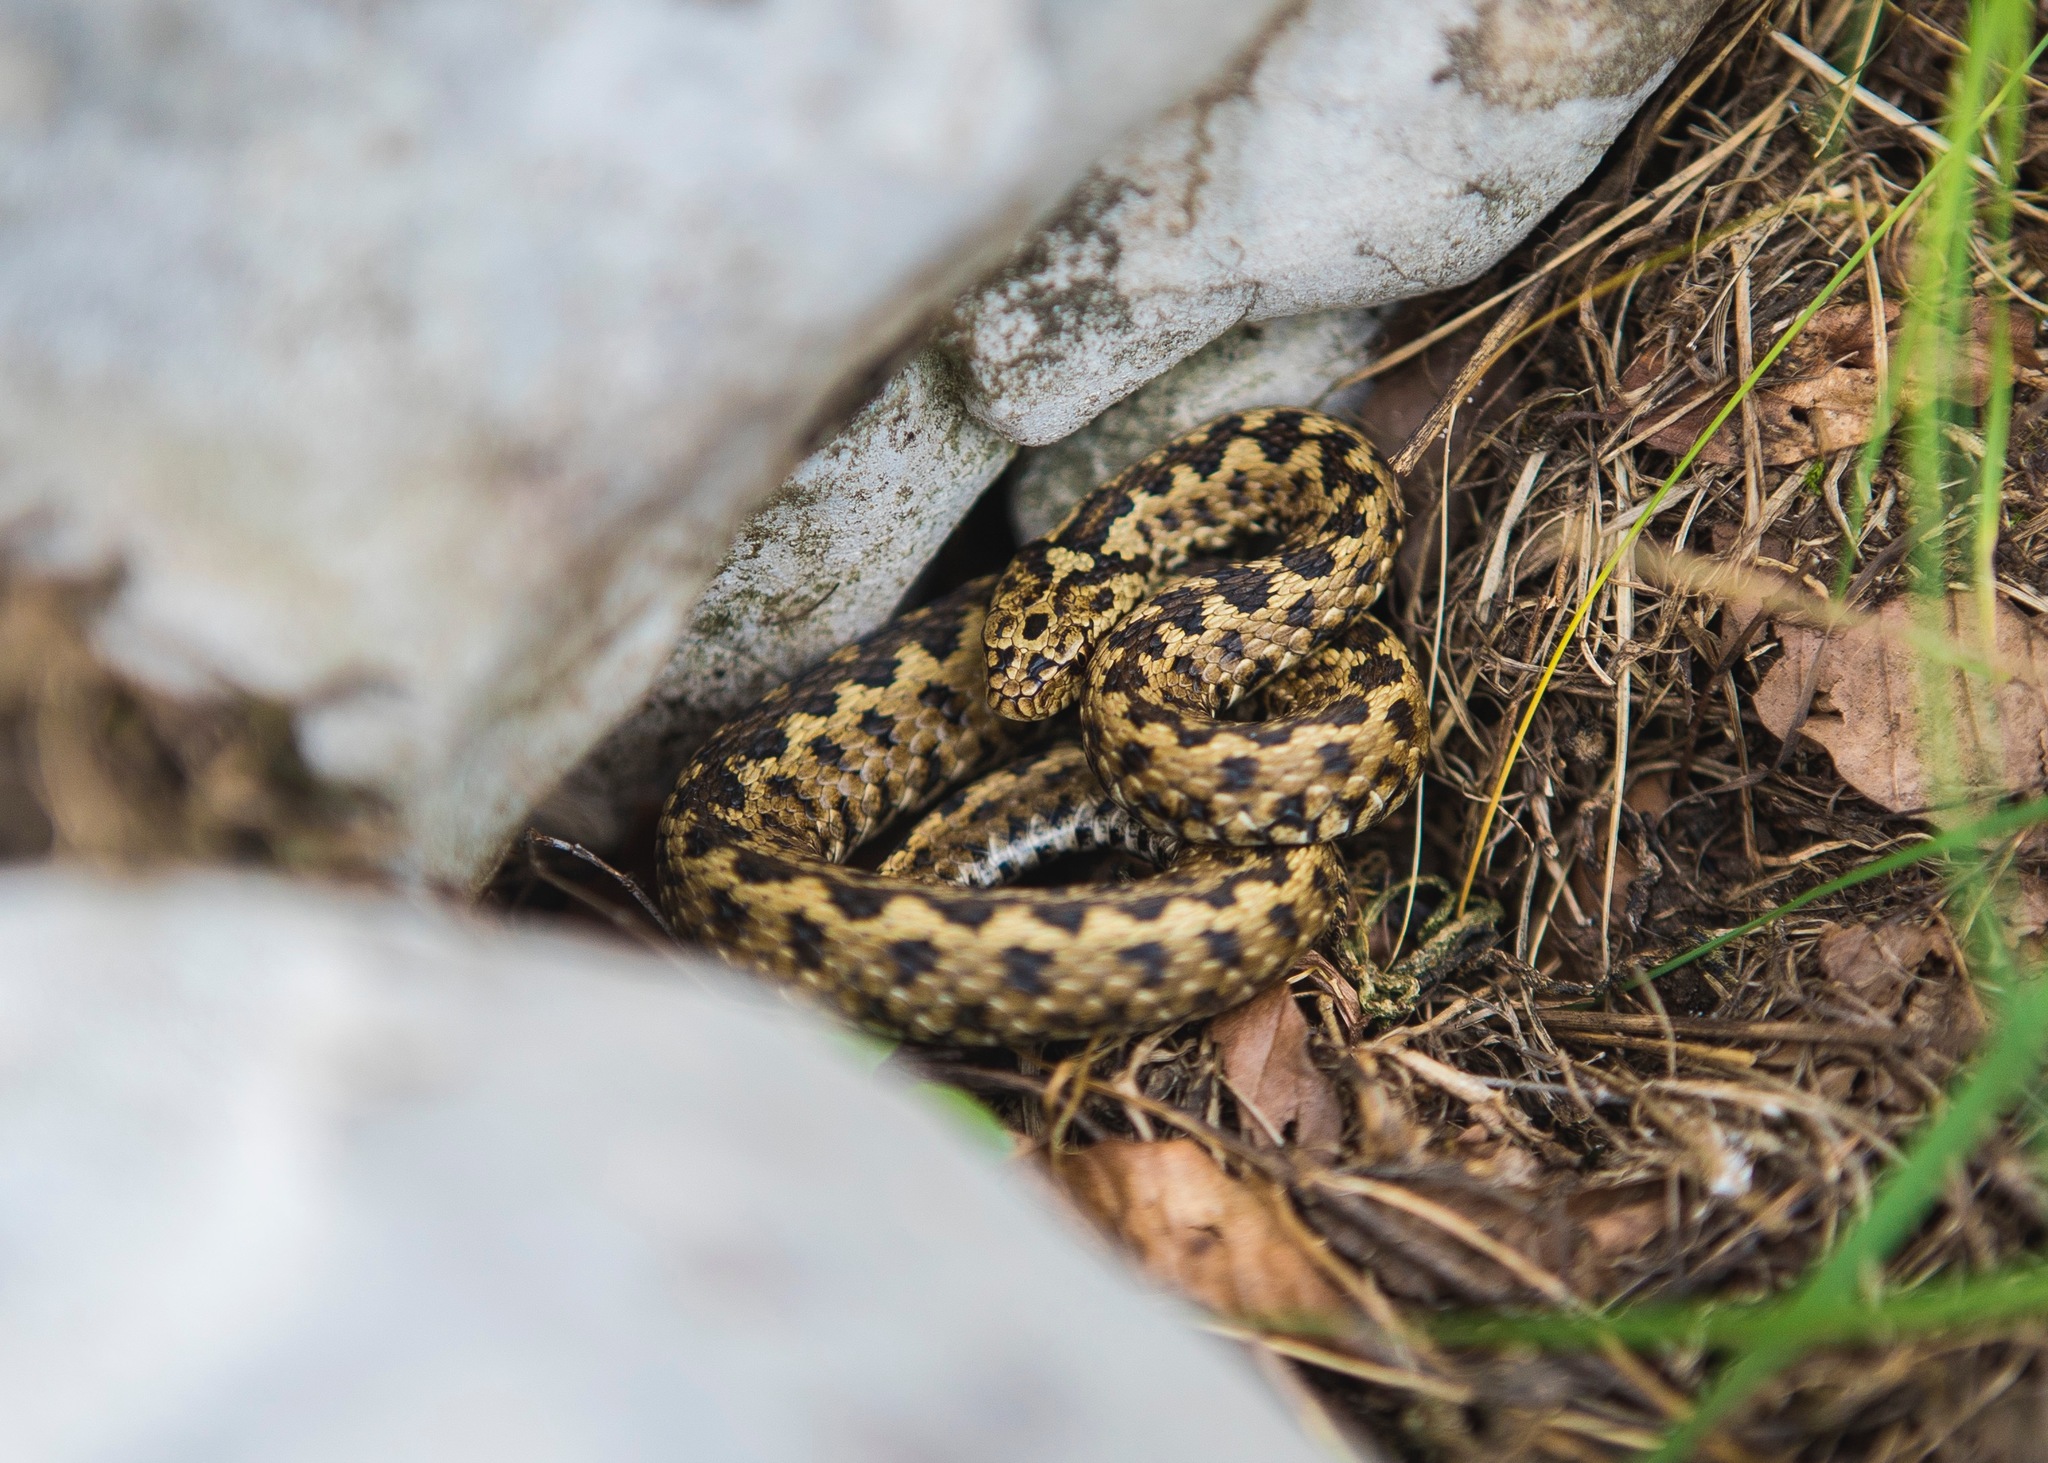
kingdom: Animalia
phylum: Chordata
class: Squamata
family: Viperidae
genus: Vipera
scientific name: Vipera ursinii
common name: Meadow viper
